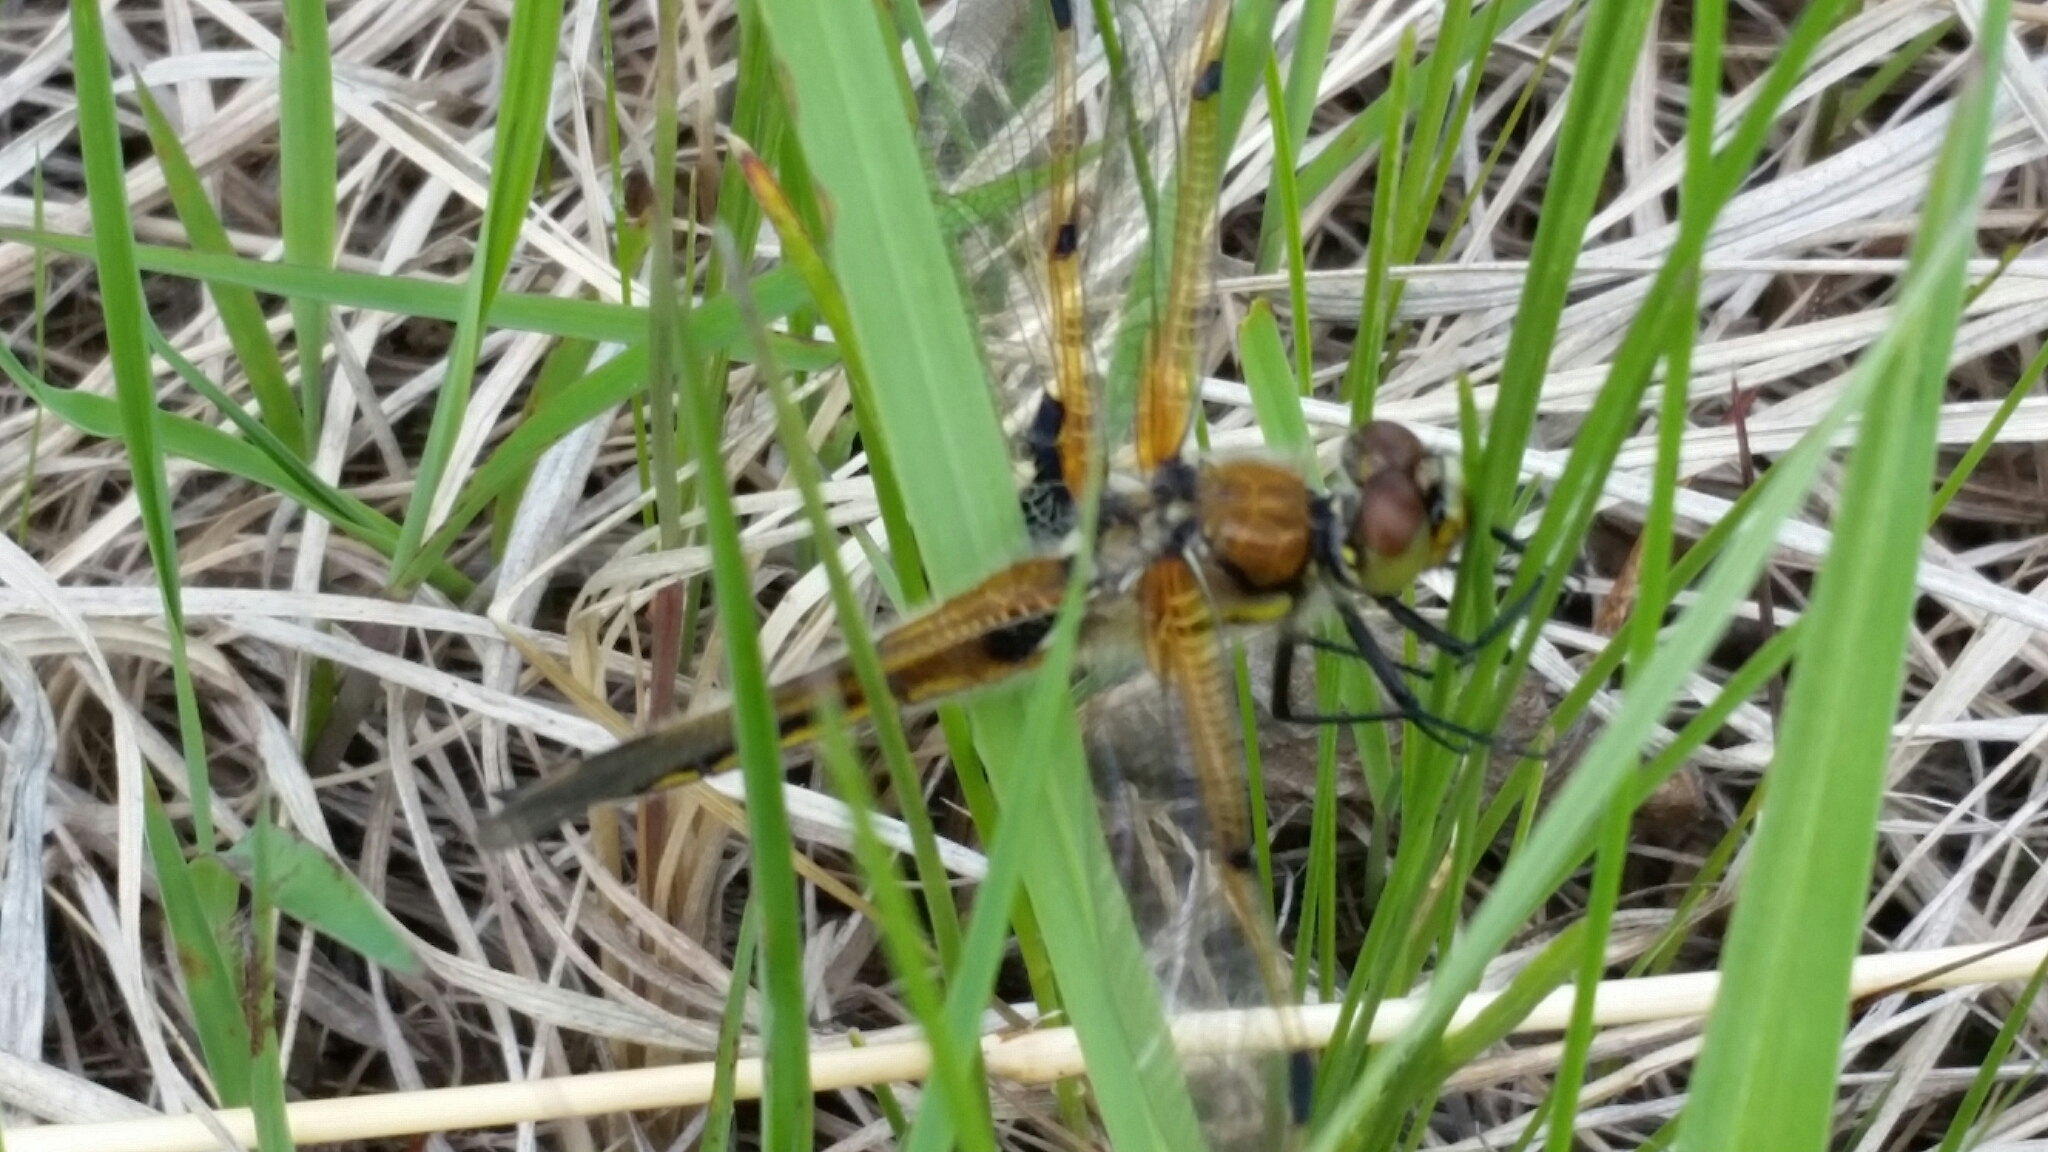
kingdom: Animalia
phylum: Arthropoda
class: Insecta
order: Odonata
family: Libellulidae
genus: Libellula
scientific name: Libellula quadrimaculata
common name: Four-spotted chaser
